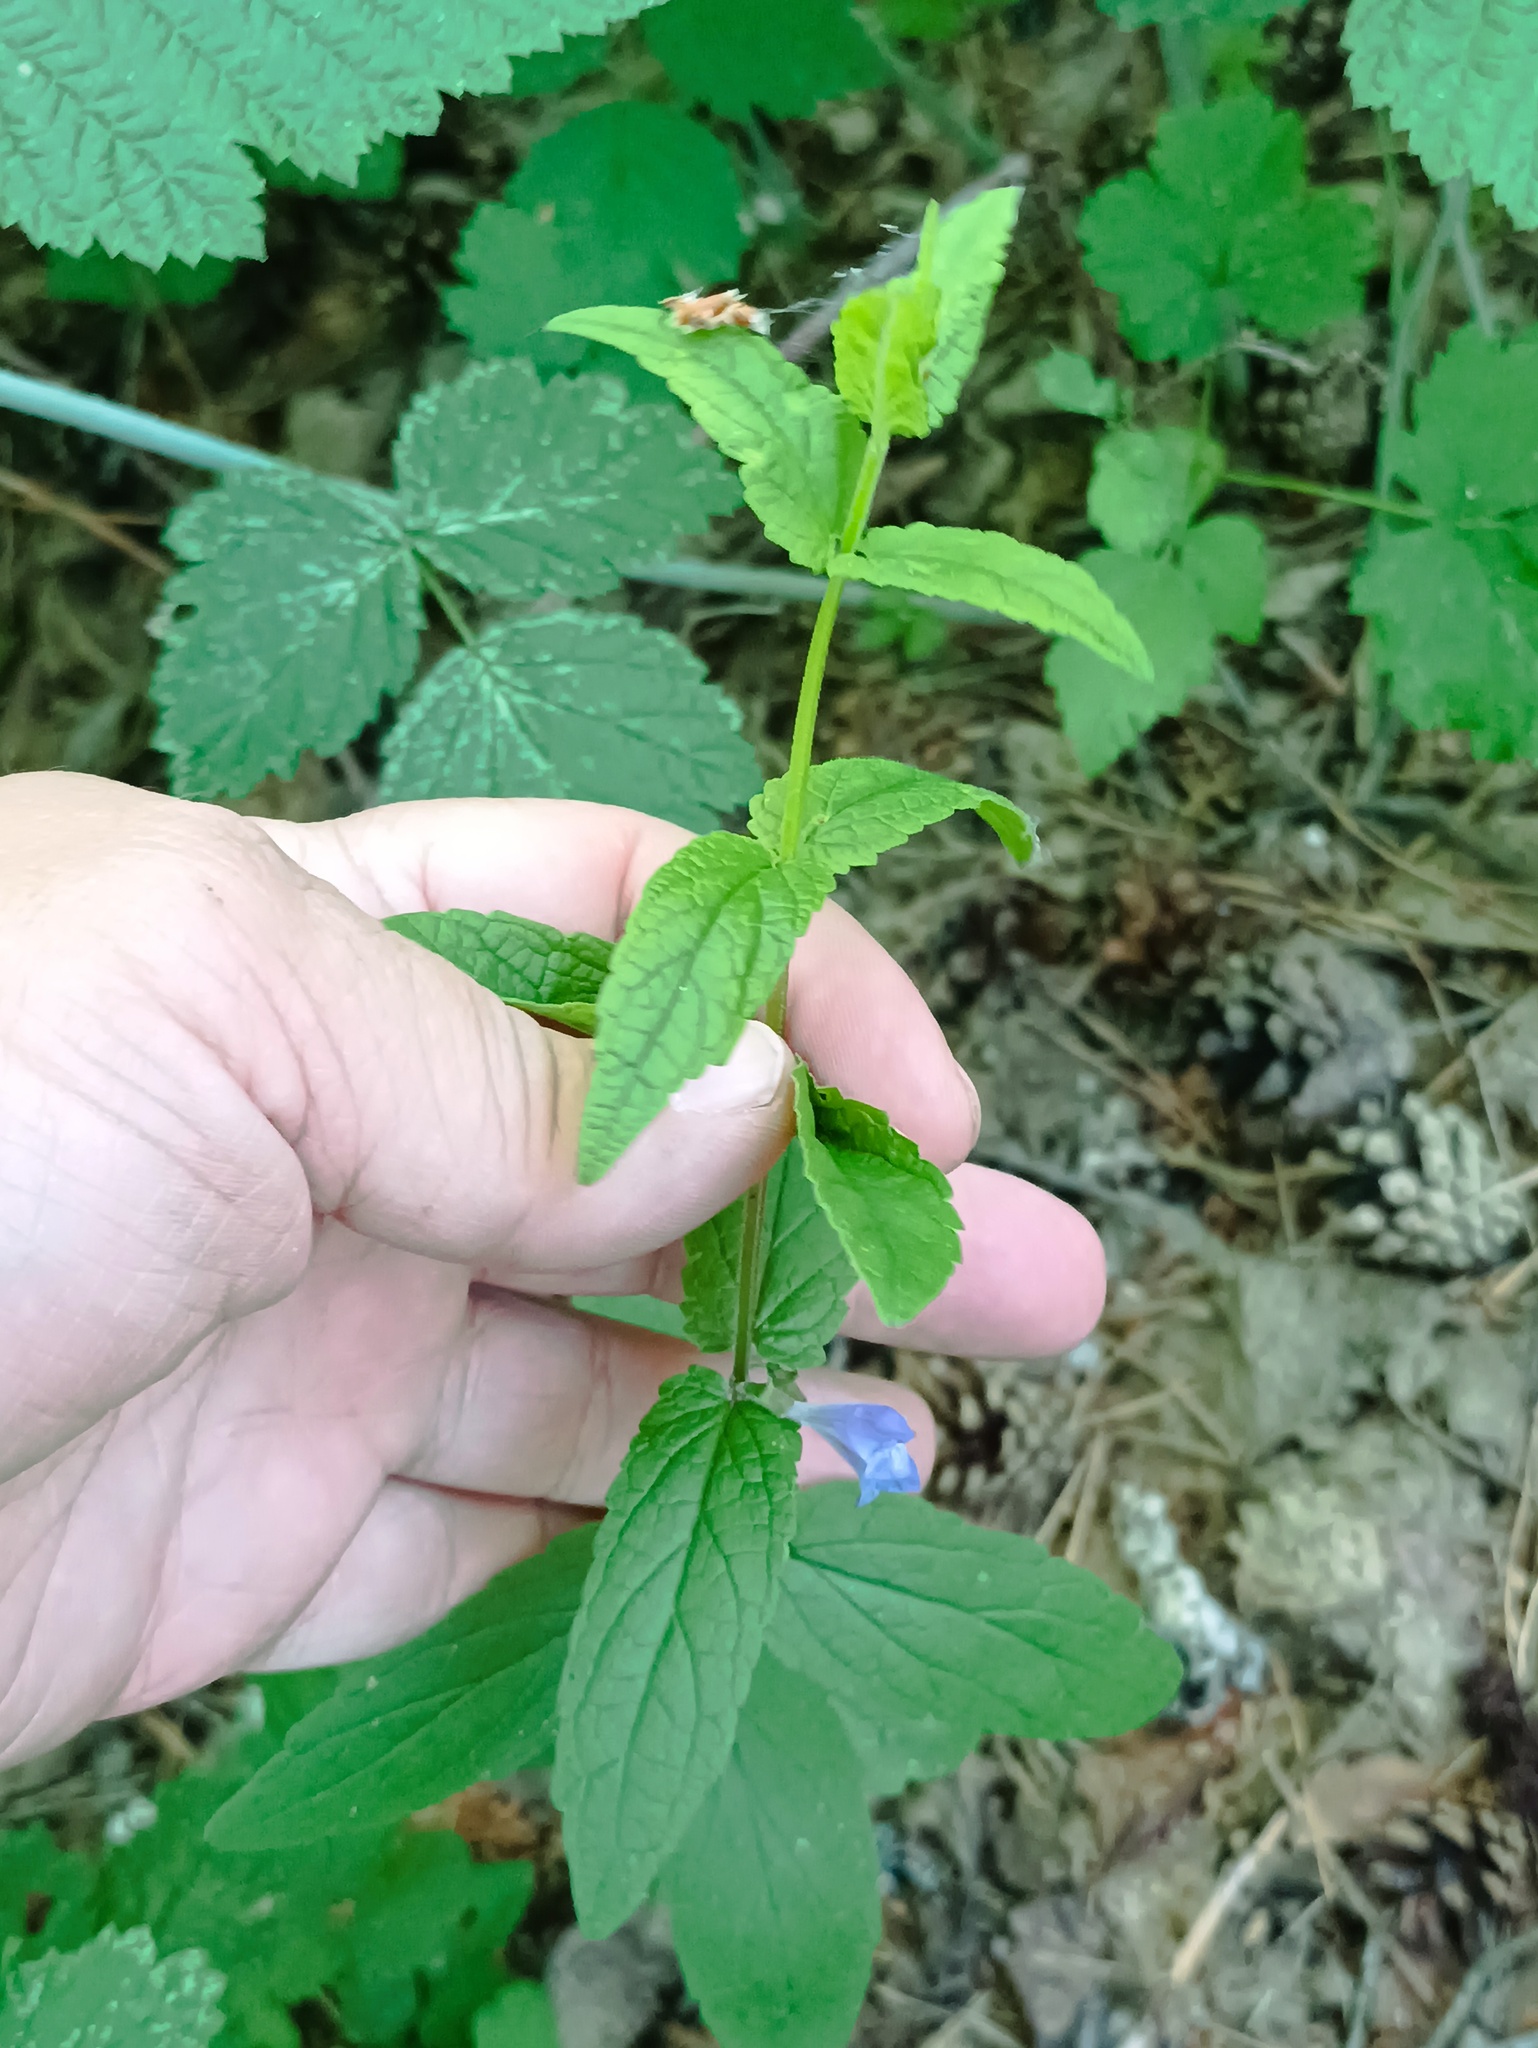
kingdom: Plantae
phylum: Tracheophyta
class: Magnoliopsida
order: Lamiales
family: Lamiaceae
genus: Scutellaria
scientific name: Scutellaria galericulata
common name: Skullcap
